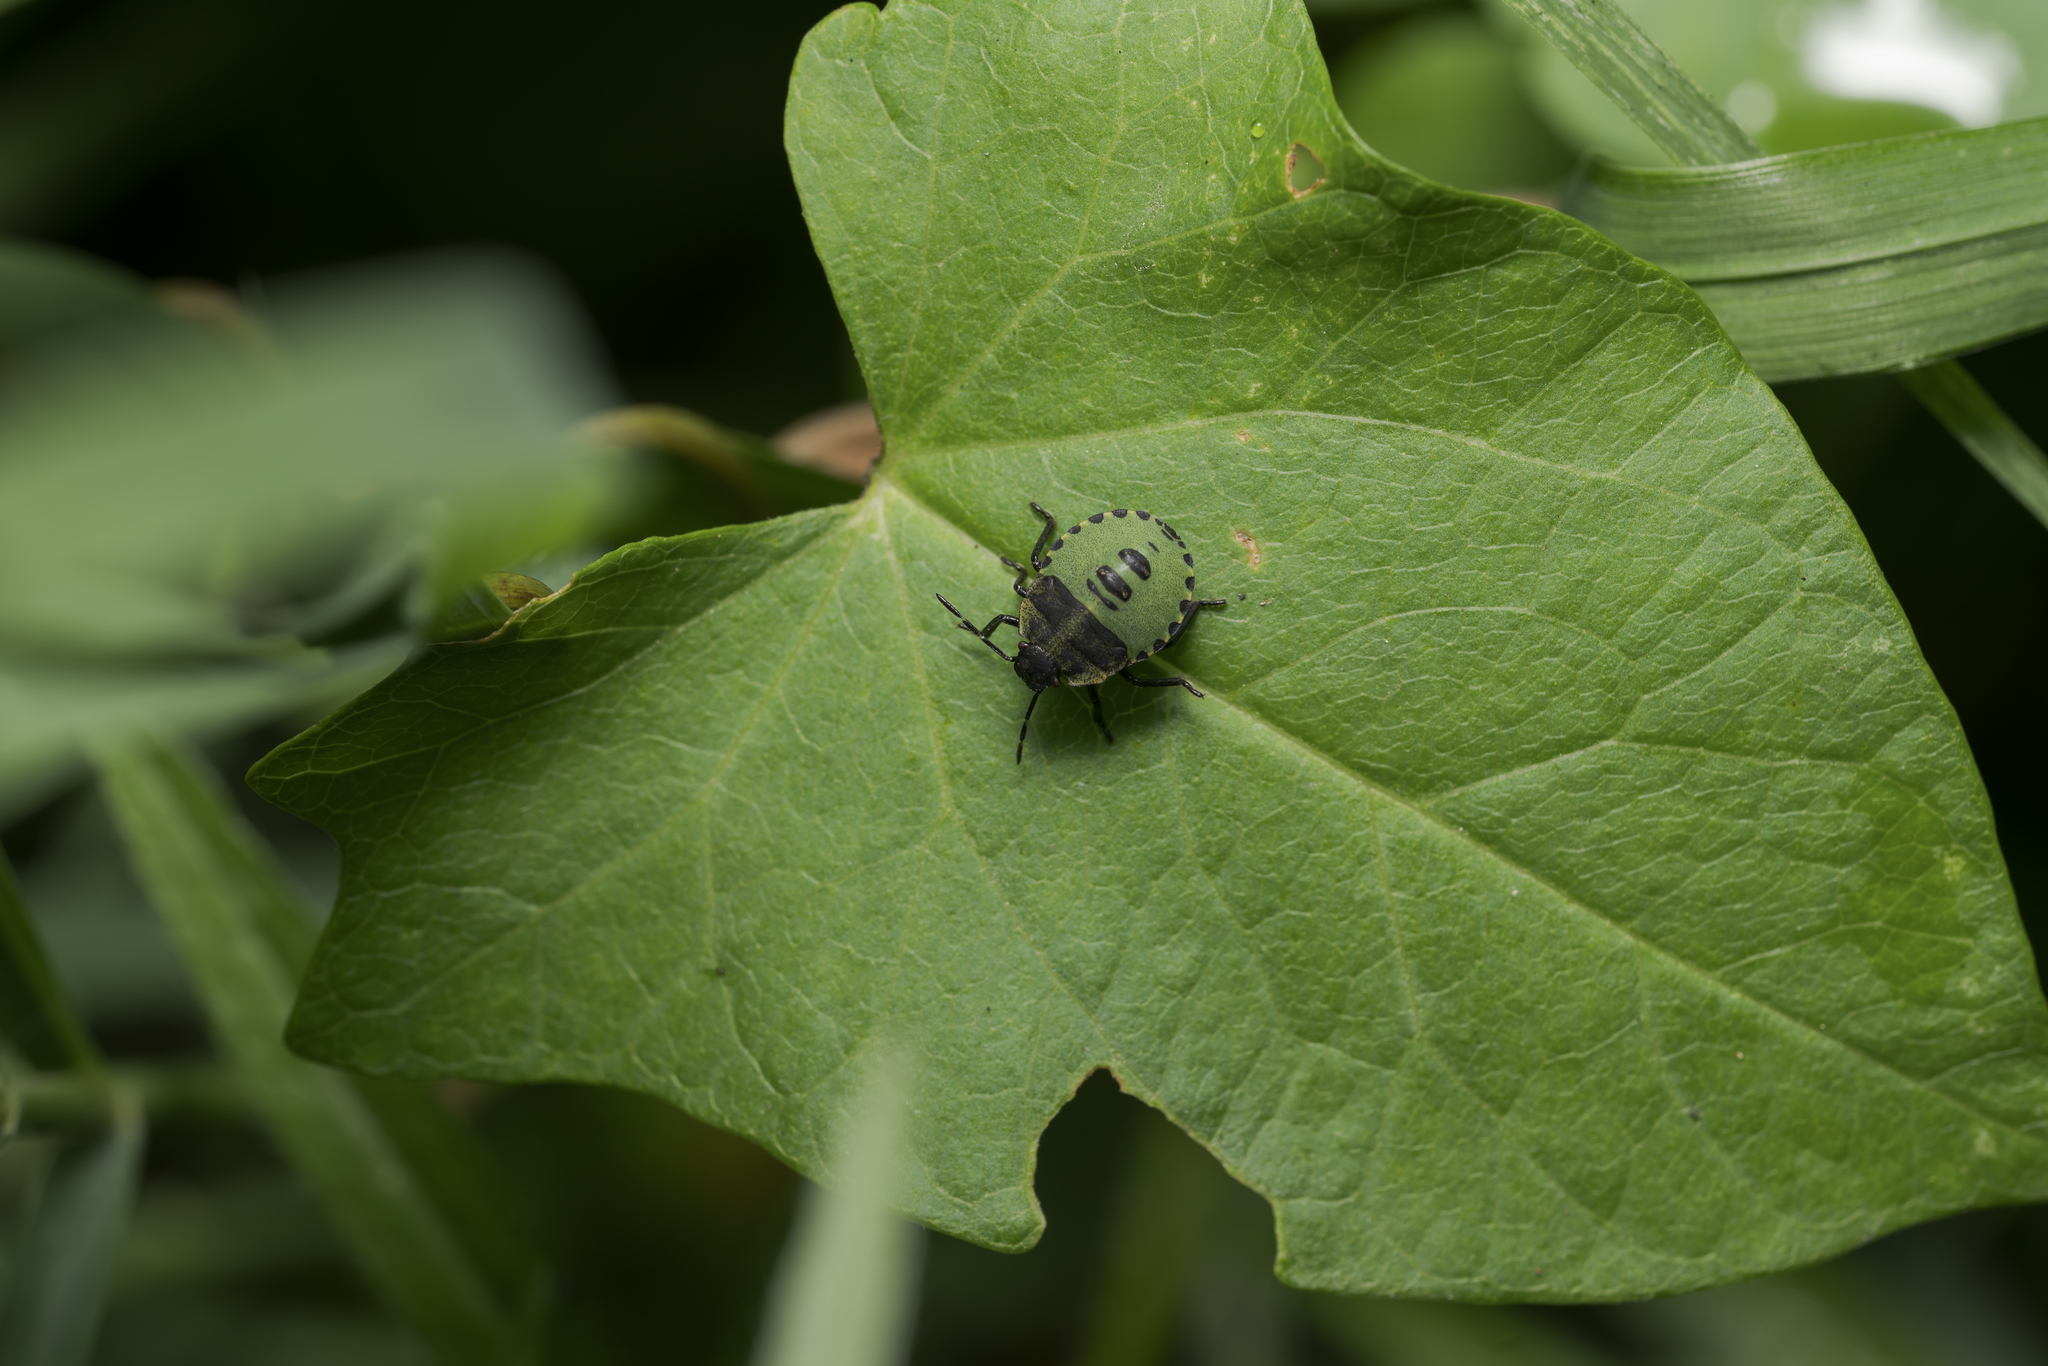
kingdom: Animalia
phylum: Arthropoda
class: Insecta
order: Hemiptera
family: Pentatomidae
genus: Palomena
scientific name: Palomena prasina
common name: Green shieldbug
